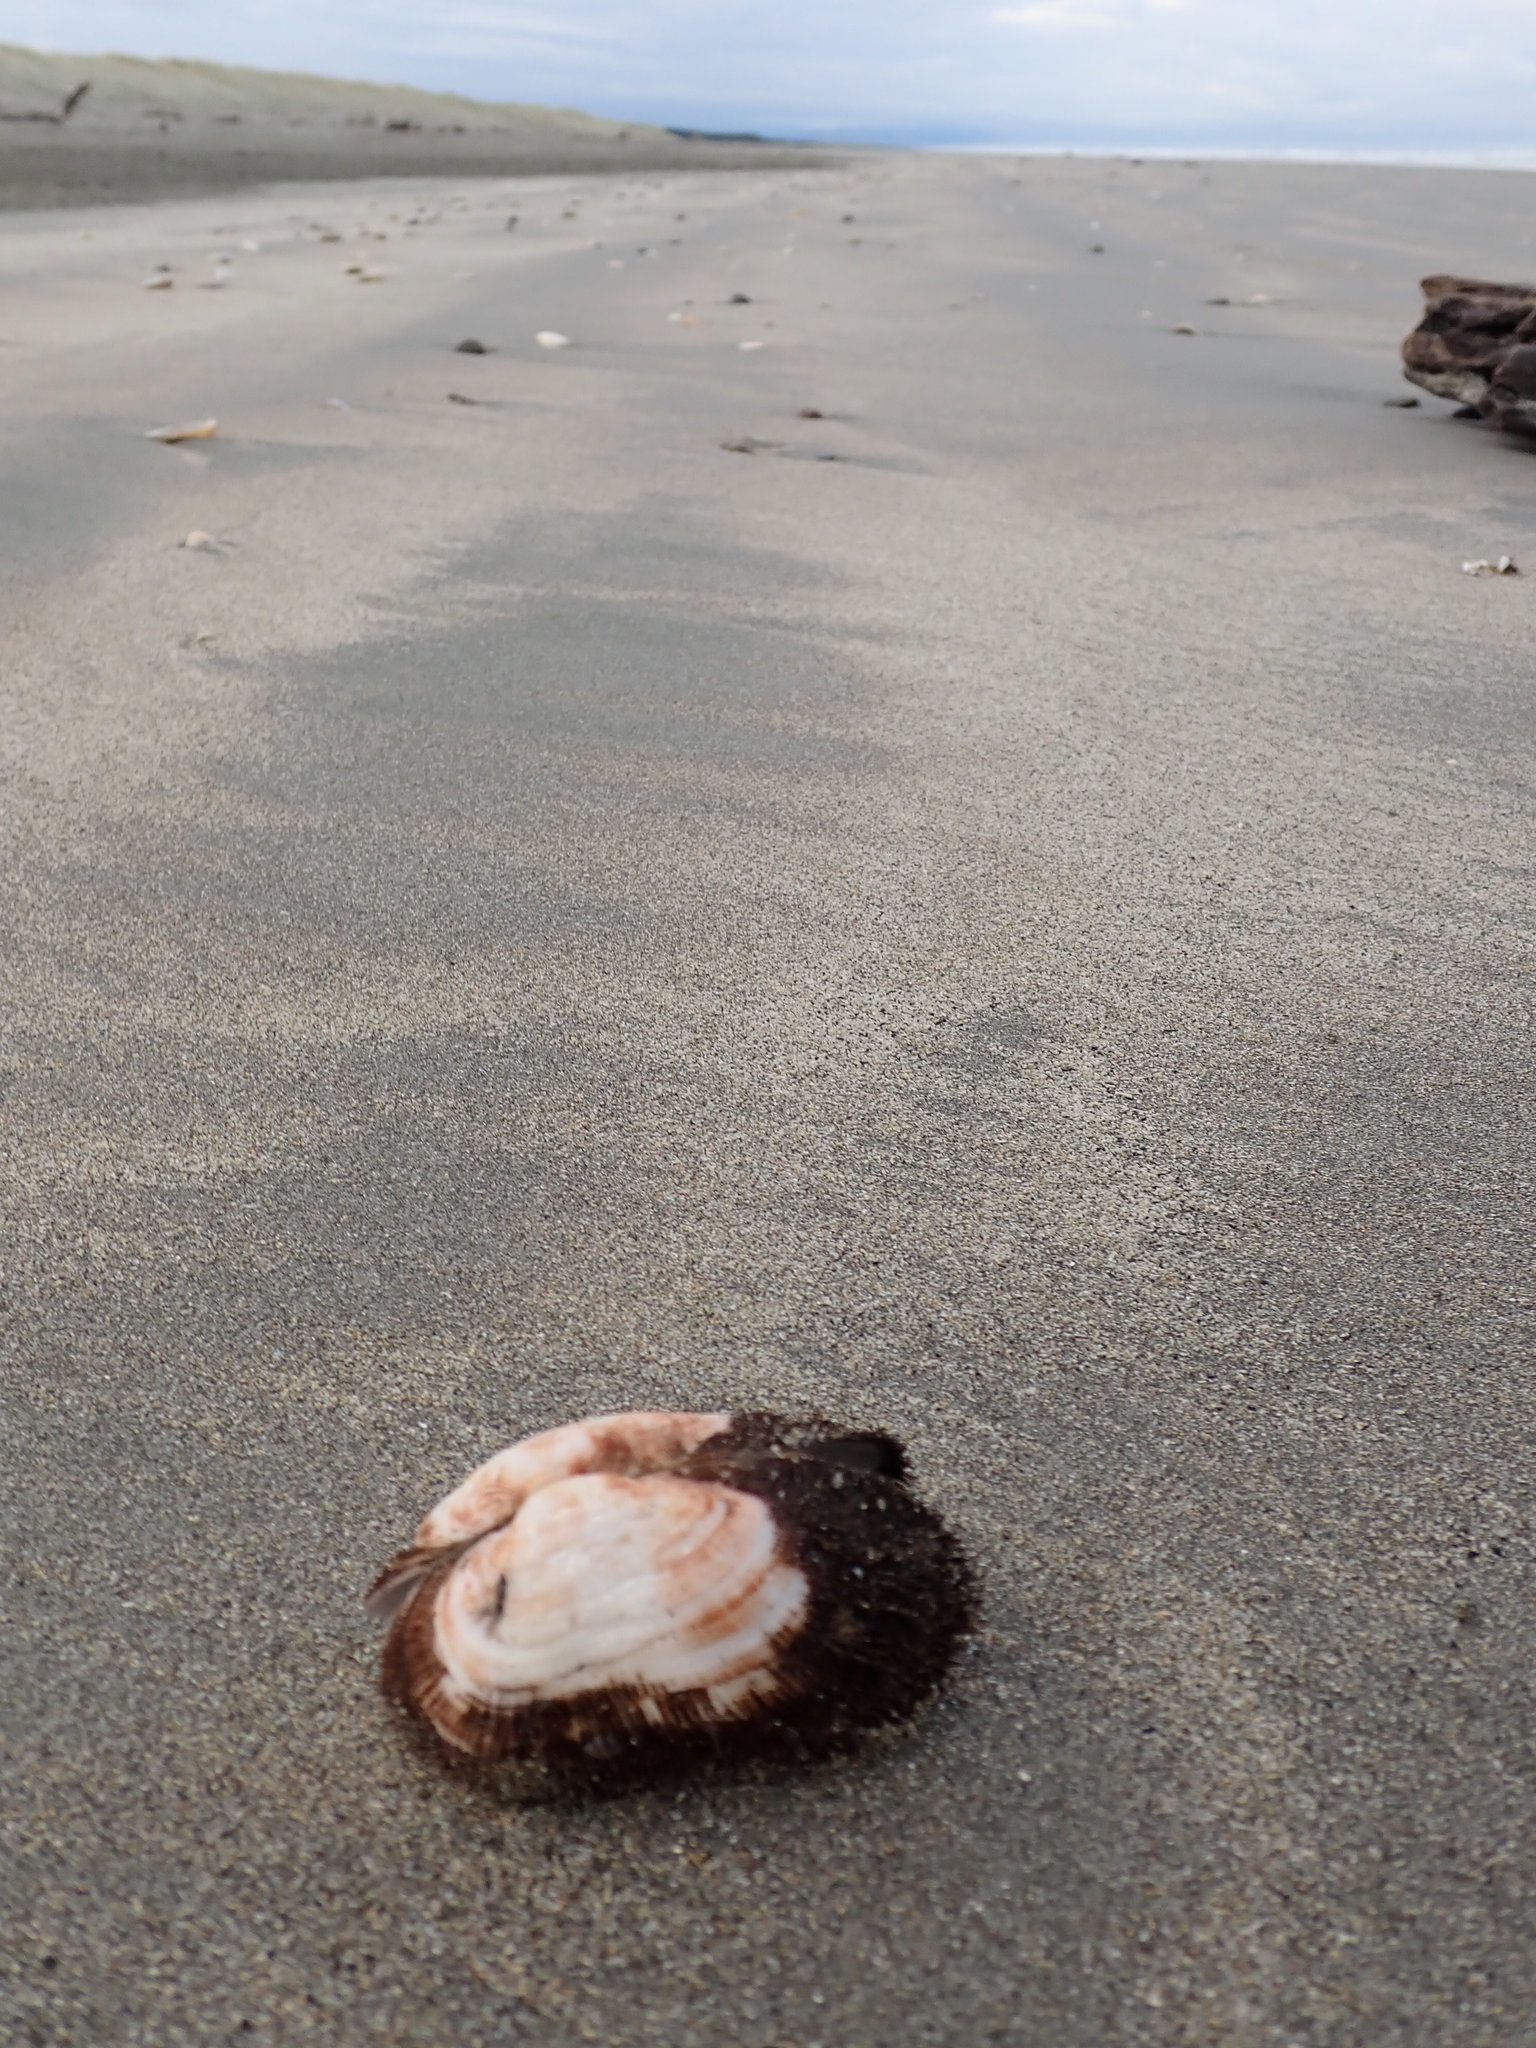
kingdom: Animalia
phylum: Mollusca
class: Bivalvia
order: Arcida
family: Arcidae
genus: Barbatia
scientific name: Barbatia novaezealandiae
